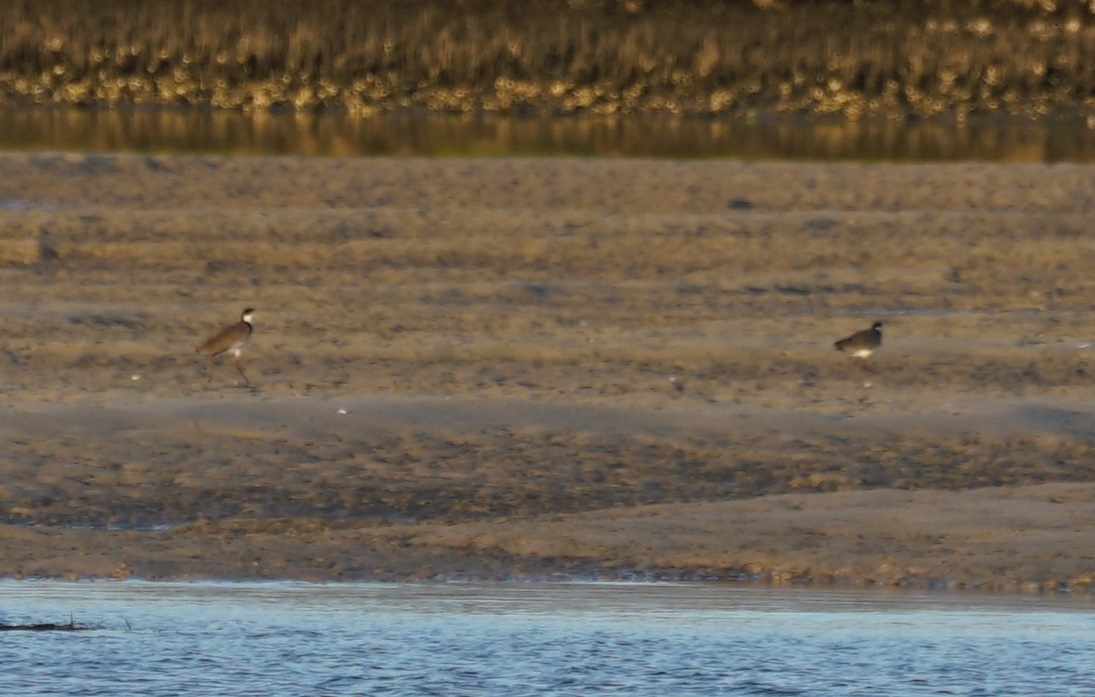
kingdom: Animalia
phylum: Chordata
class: Aves
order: Charadriiformes
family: Charadriidae
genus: Vanellus
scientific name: Vanellus miles
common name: Masked lapwing
